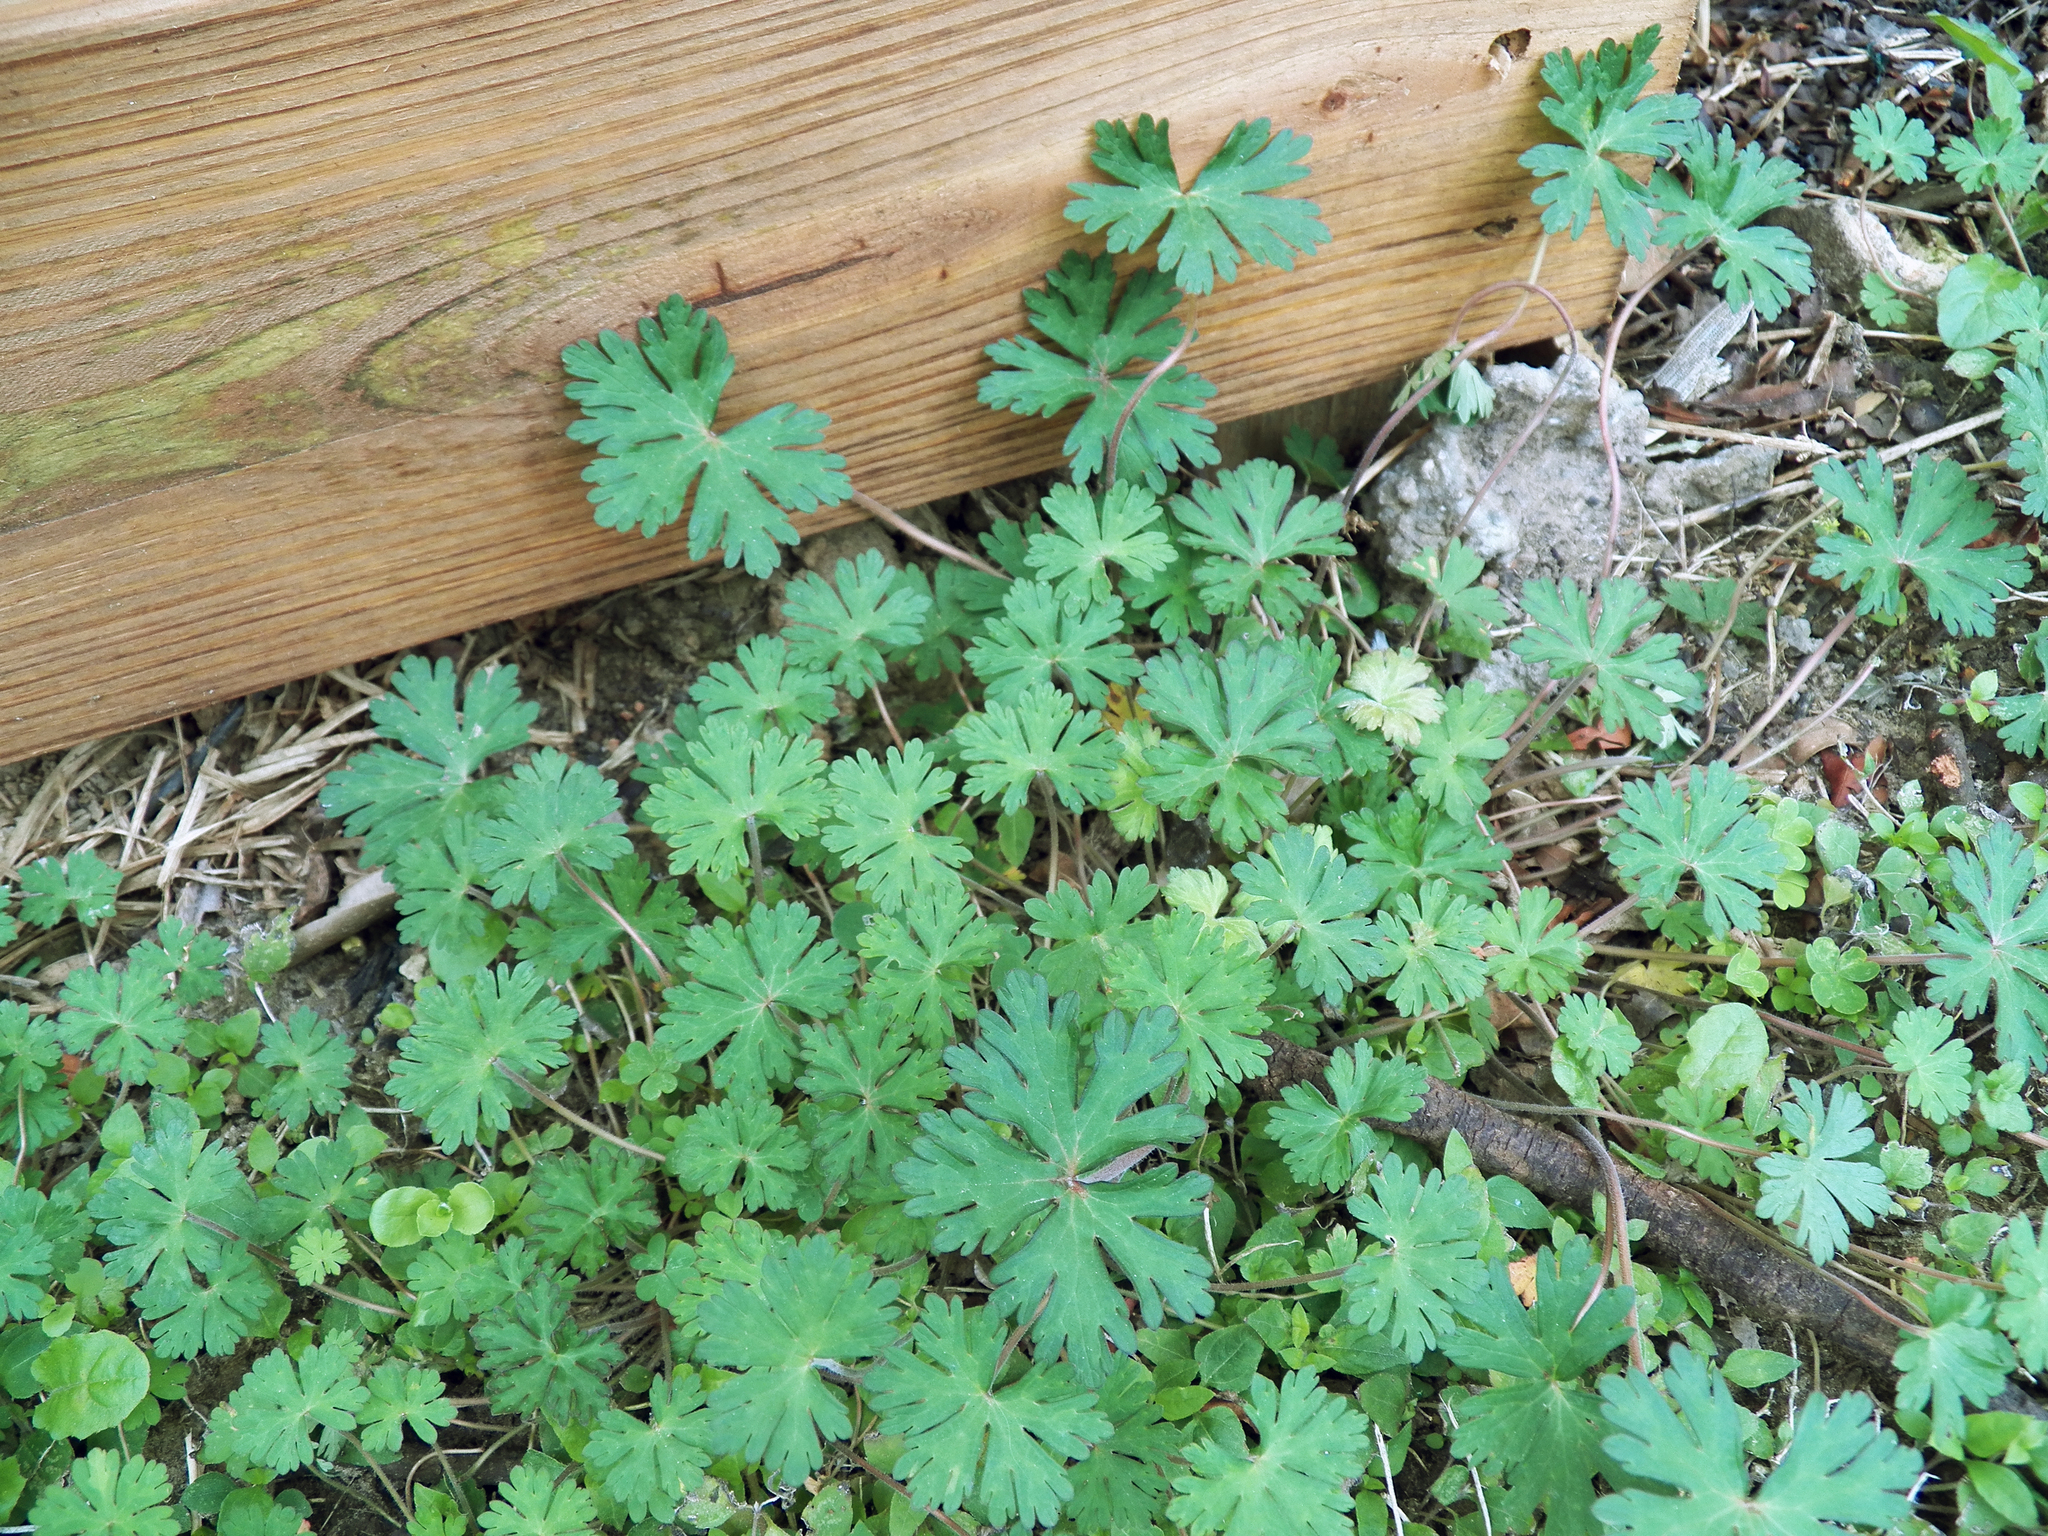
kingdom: Plantae
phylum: Tracheophyta
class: Magnoliopsida
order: Geraniales
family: Geraniaceae
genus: Geranium
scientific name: Geranium carolinianum
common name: Carolina crane's-bill
